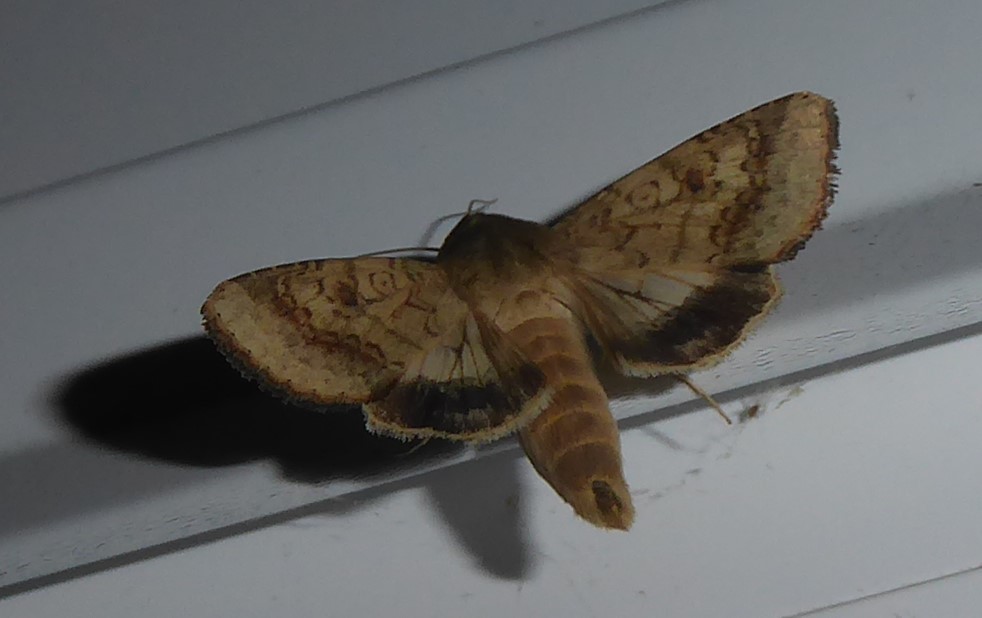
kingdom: Animalia
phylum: Arthropoda
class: Insecta
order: Lepidoptera
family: Noctuidae
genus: Helicoverpa
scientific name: Helicoverpa armigera
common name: Cotton bollworm
